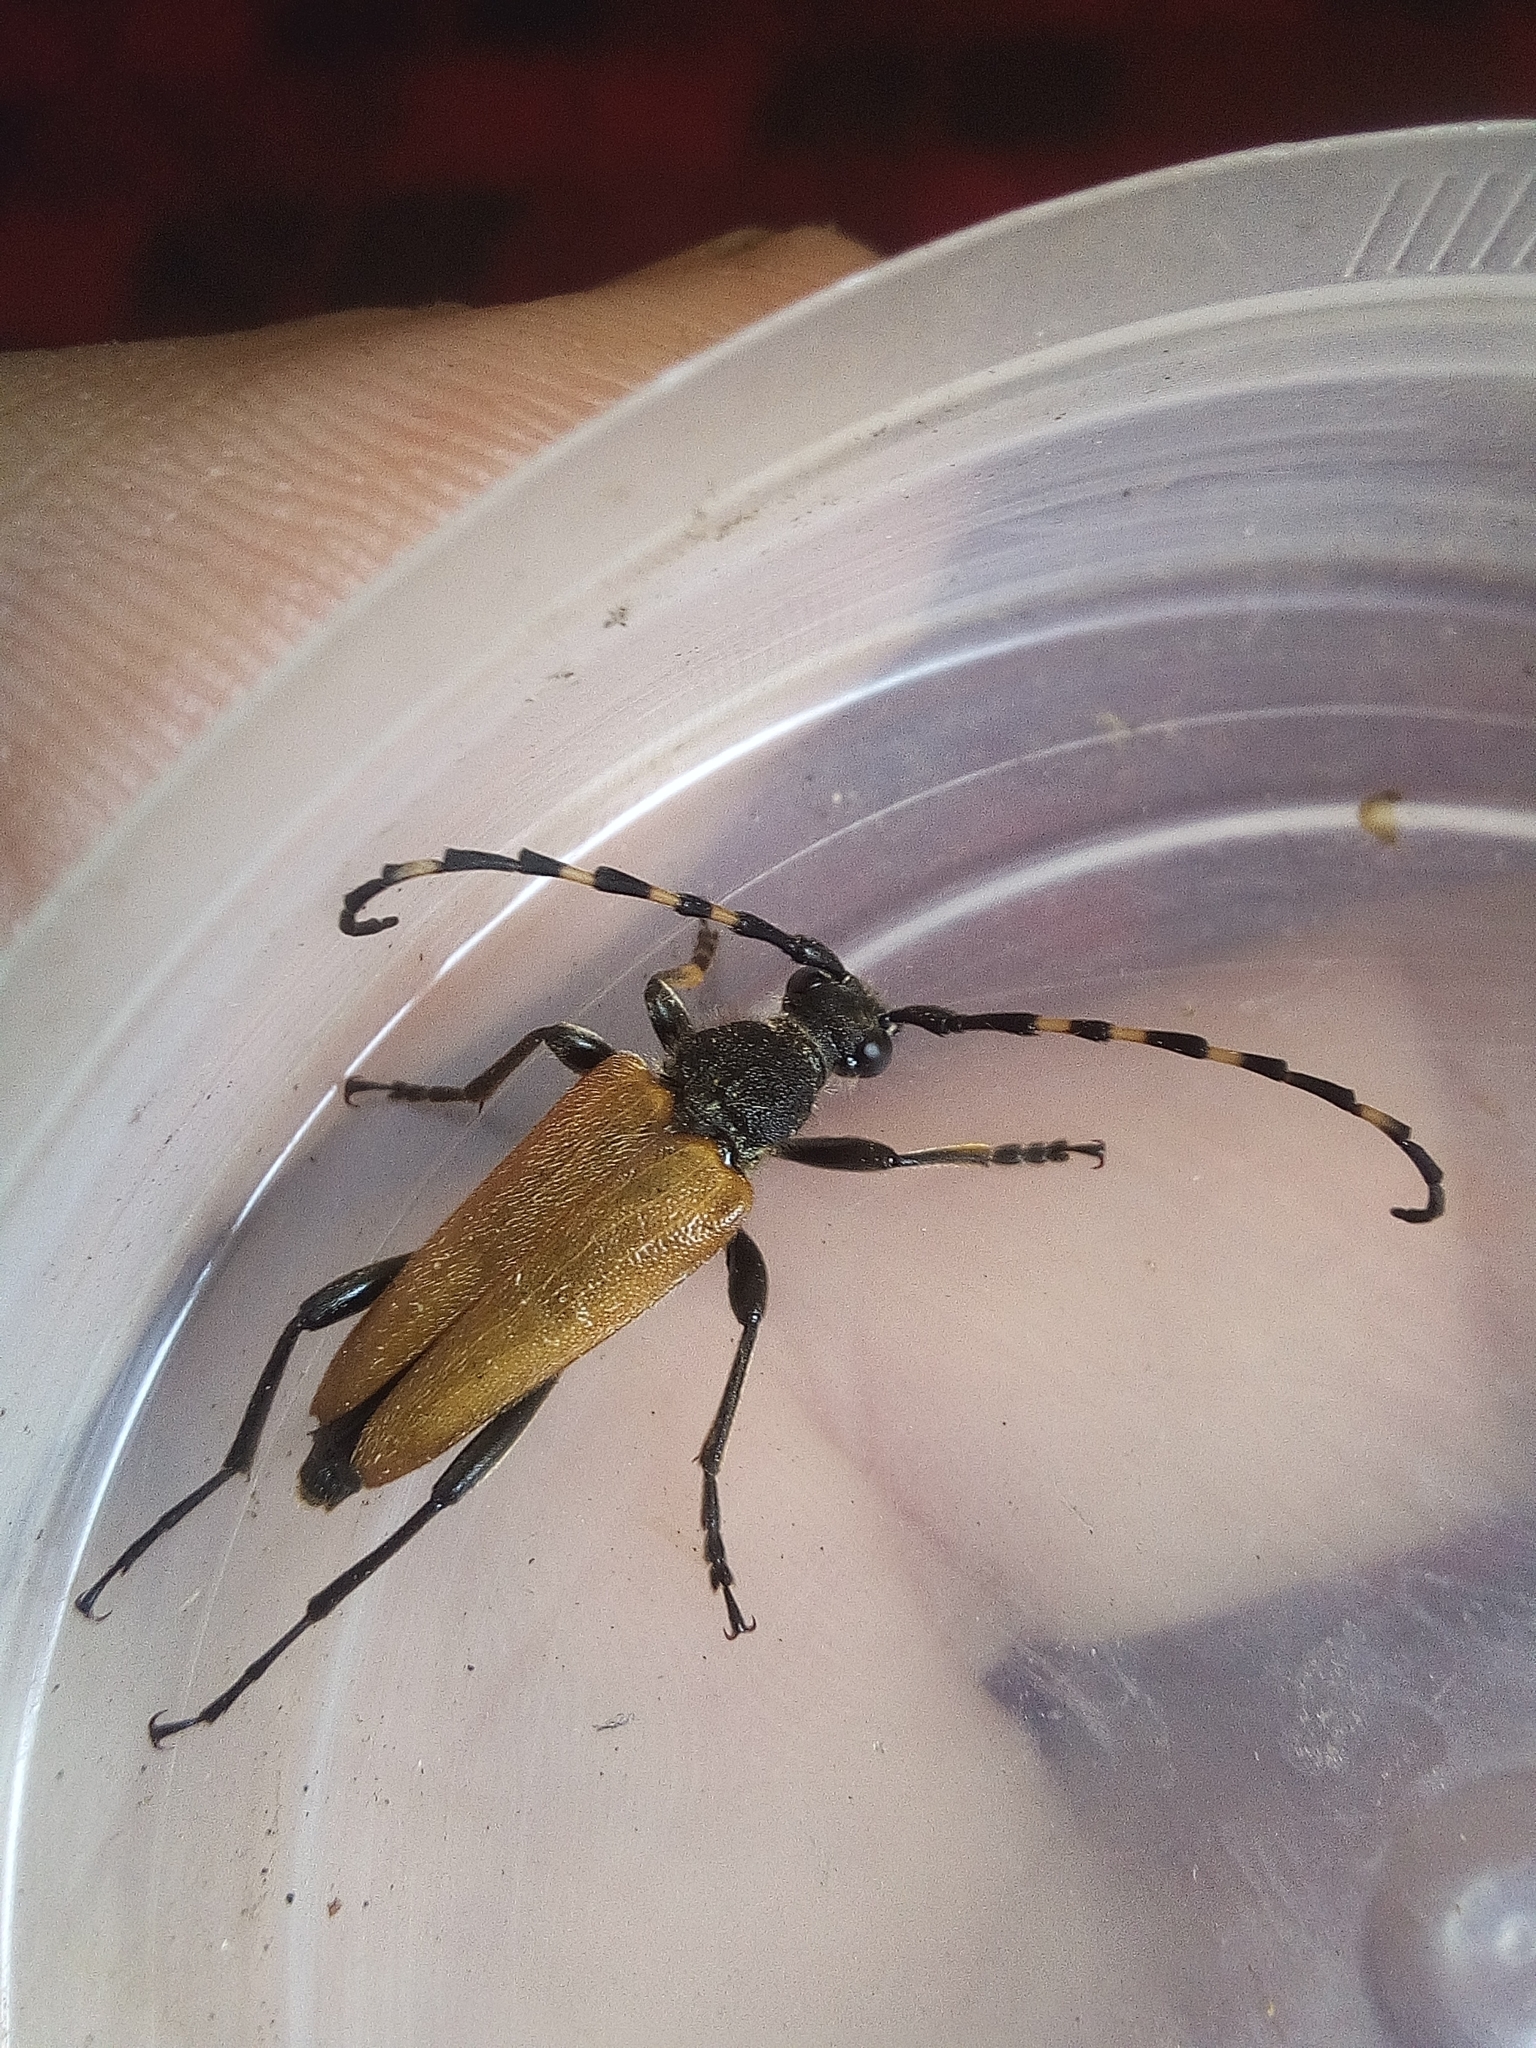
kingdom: Animalia
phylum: Arthropoda
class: Insecta
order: Coleoptera
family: Cerambycidae
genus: Stictoleptura
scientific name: Stictoleptura variicornis
